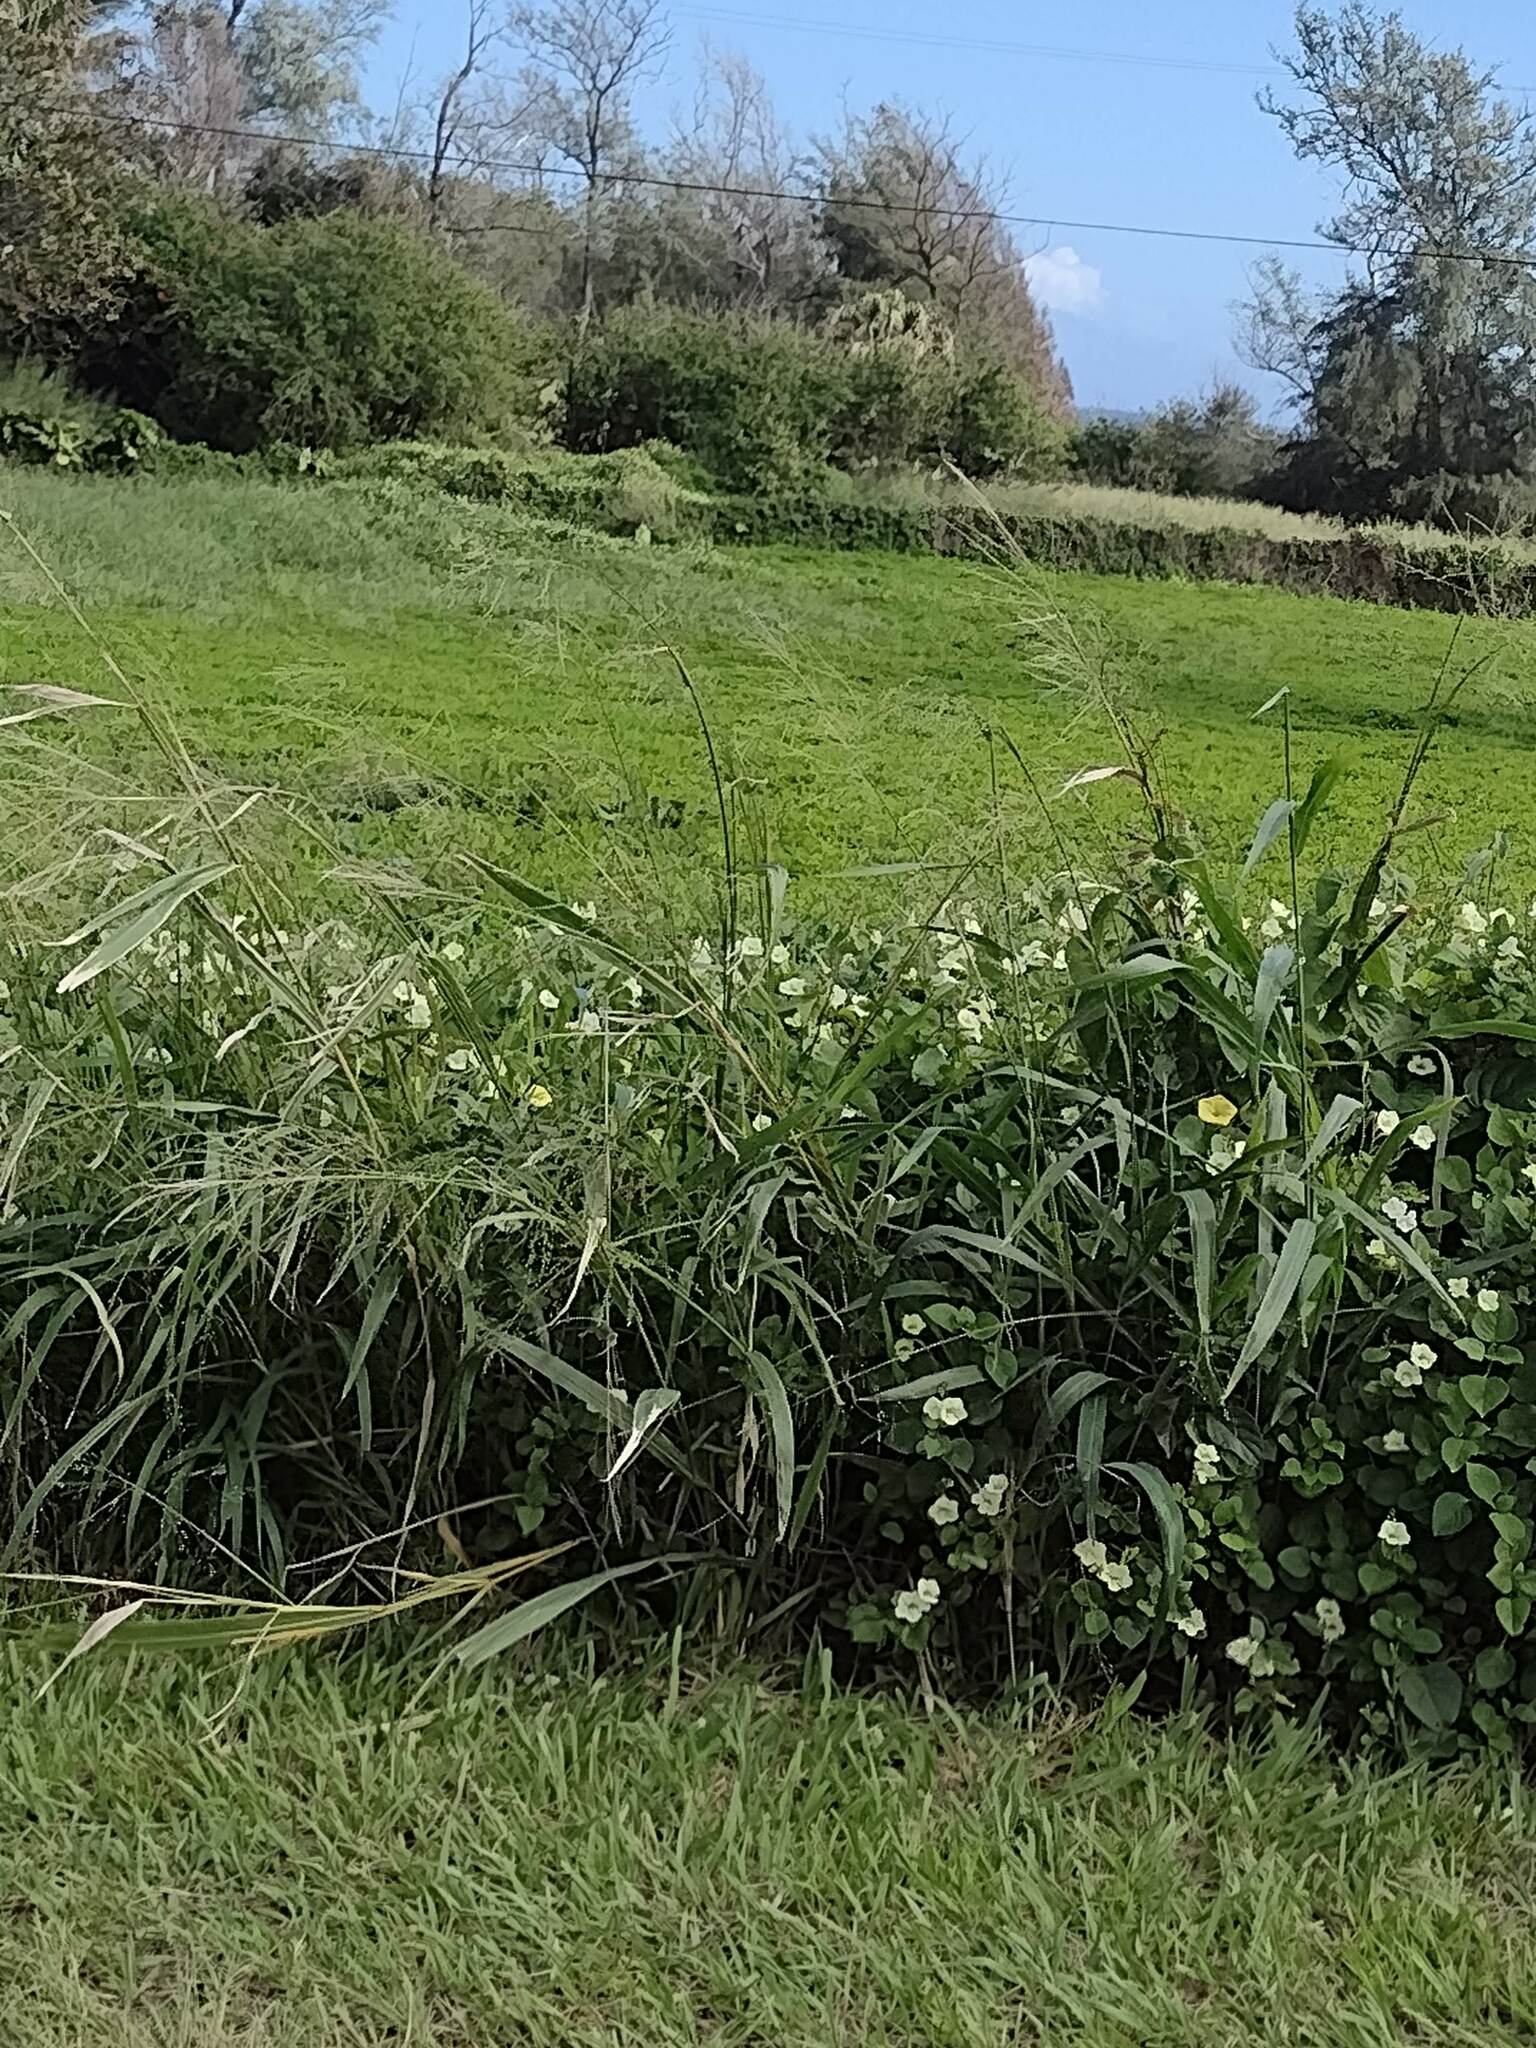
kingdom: Plantae
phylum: Tracheophyta
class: Liliopsida
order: Poales
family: Poaceae
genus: Megathyrsus
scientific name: Megathyrsus maximus
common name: Guineagrass
